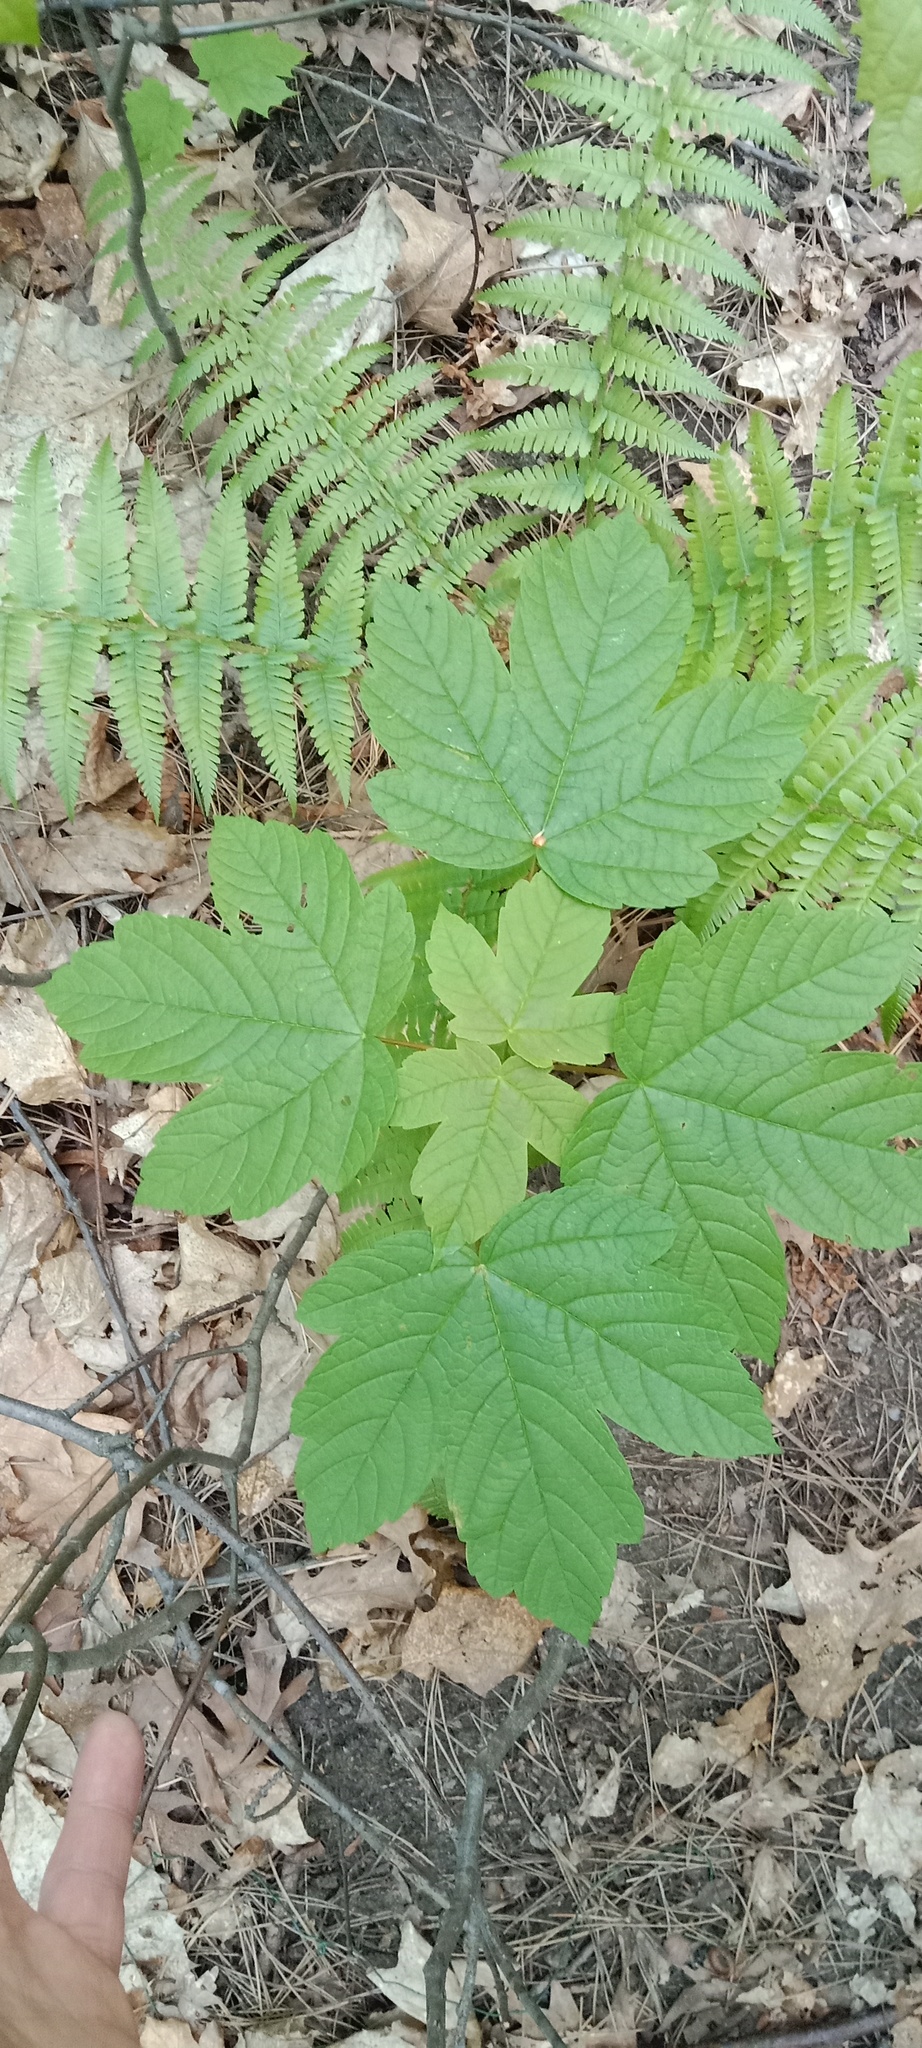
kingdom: Plantae
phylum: Tracheophyta
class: Magnoliopsida
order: Sapindales
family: Sapindaceae
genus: Acer
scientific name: Acer pseudoplatanus
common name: Sycamore
